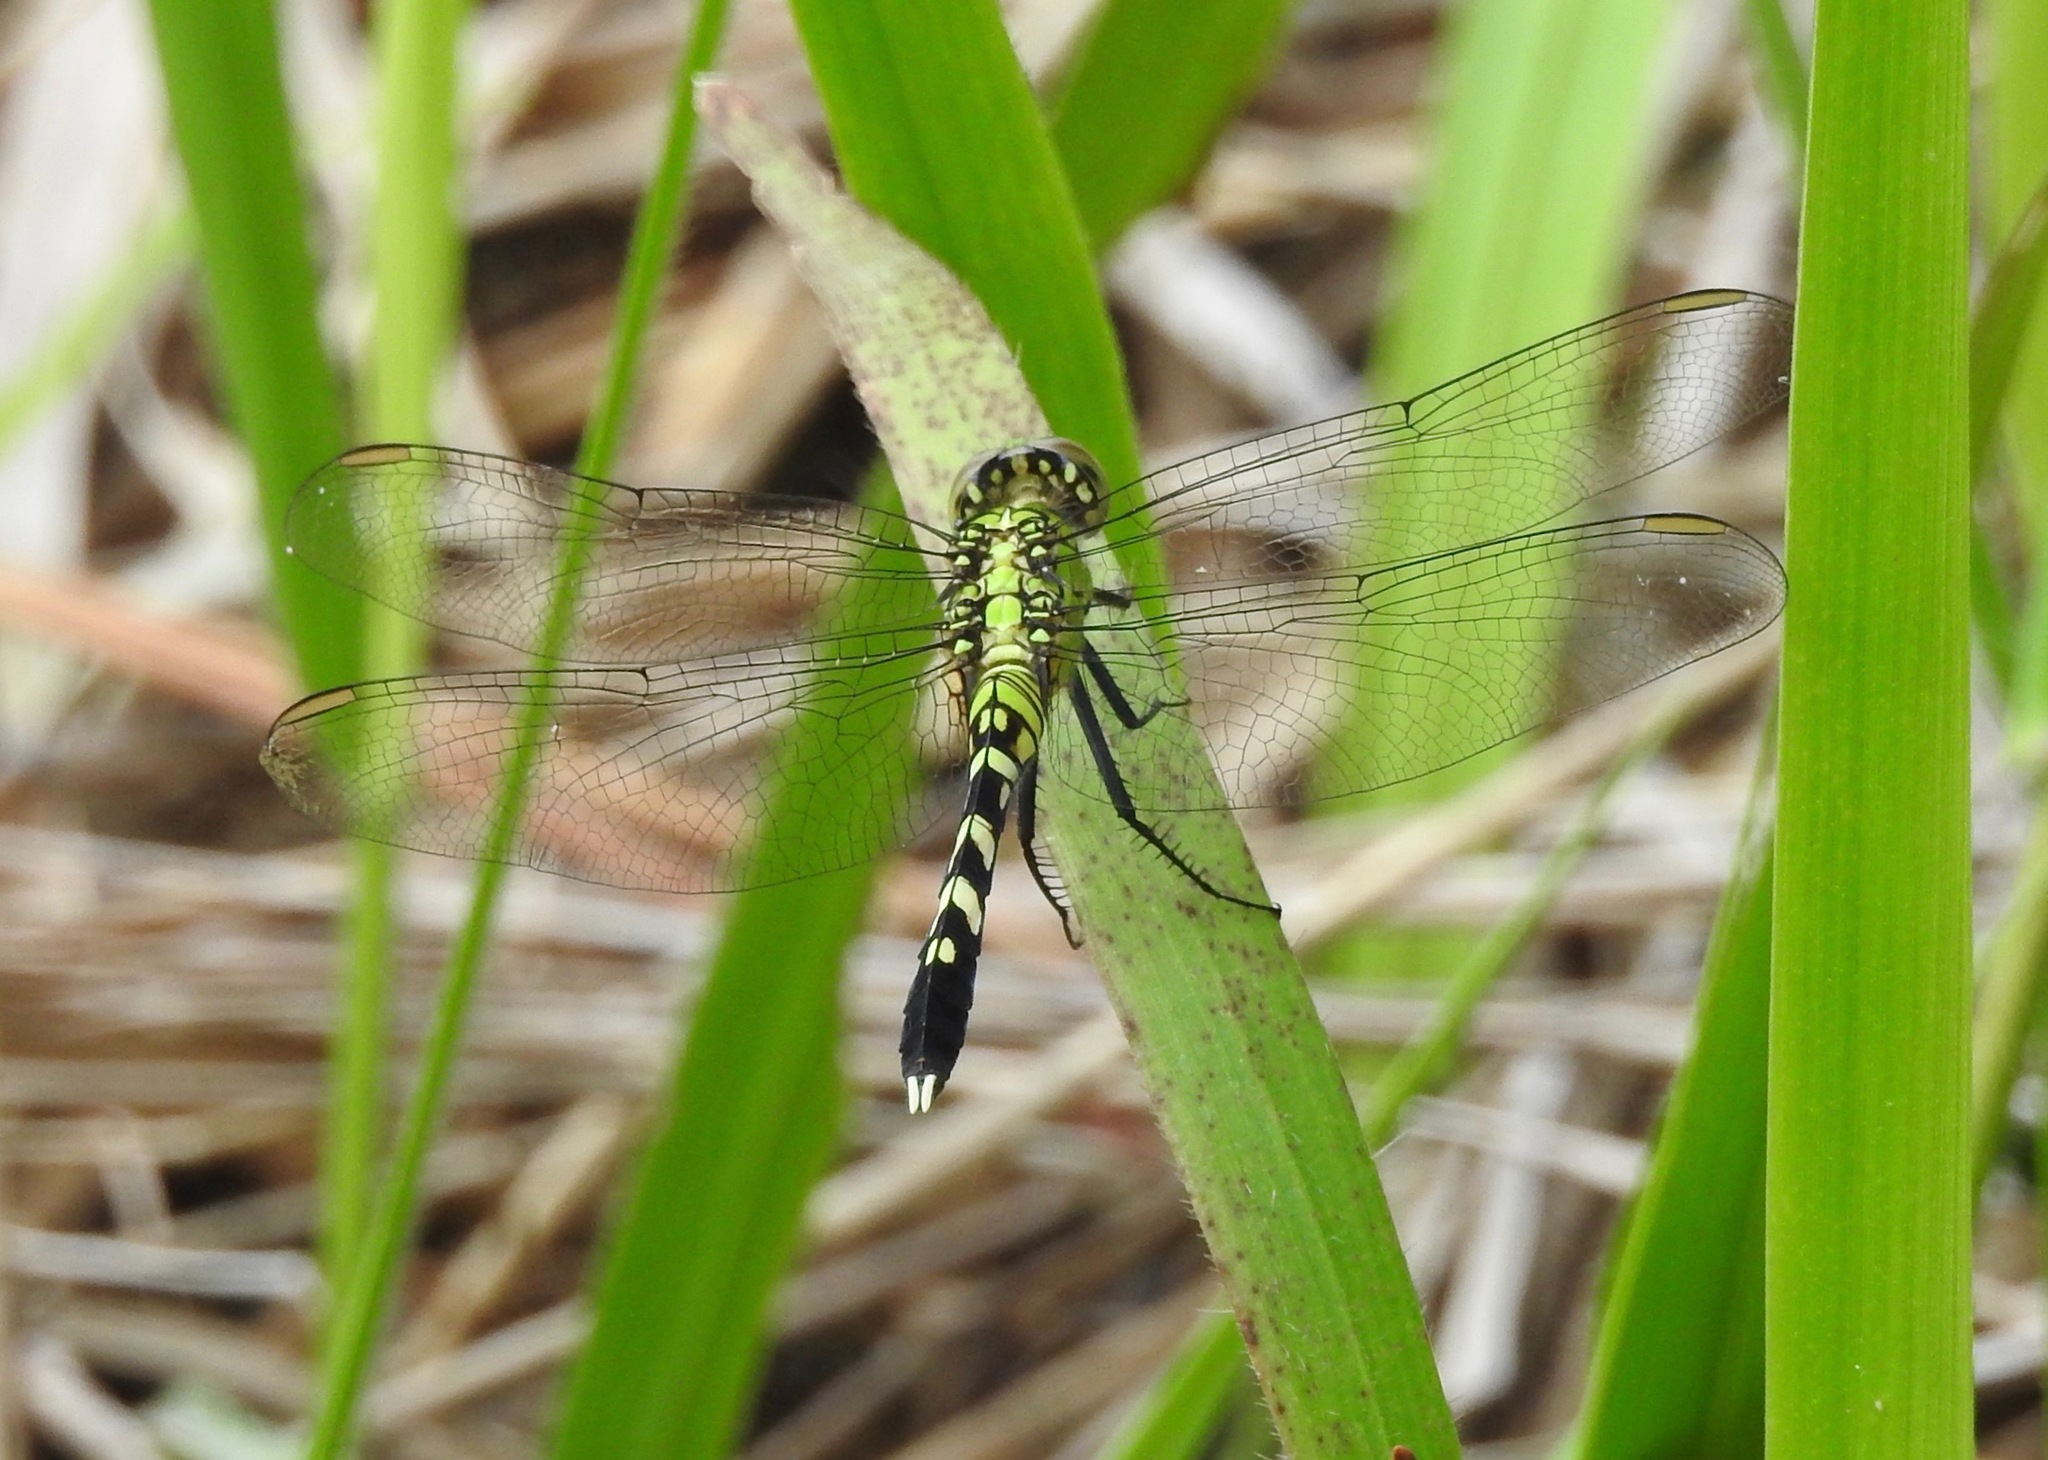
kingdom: Animalia
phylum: Arthropoda
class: Insecta
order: Odonata
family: Libellulidae
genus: Erythemis
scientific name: Erythemis simplicicollis
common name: Eastern pondhawk
